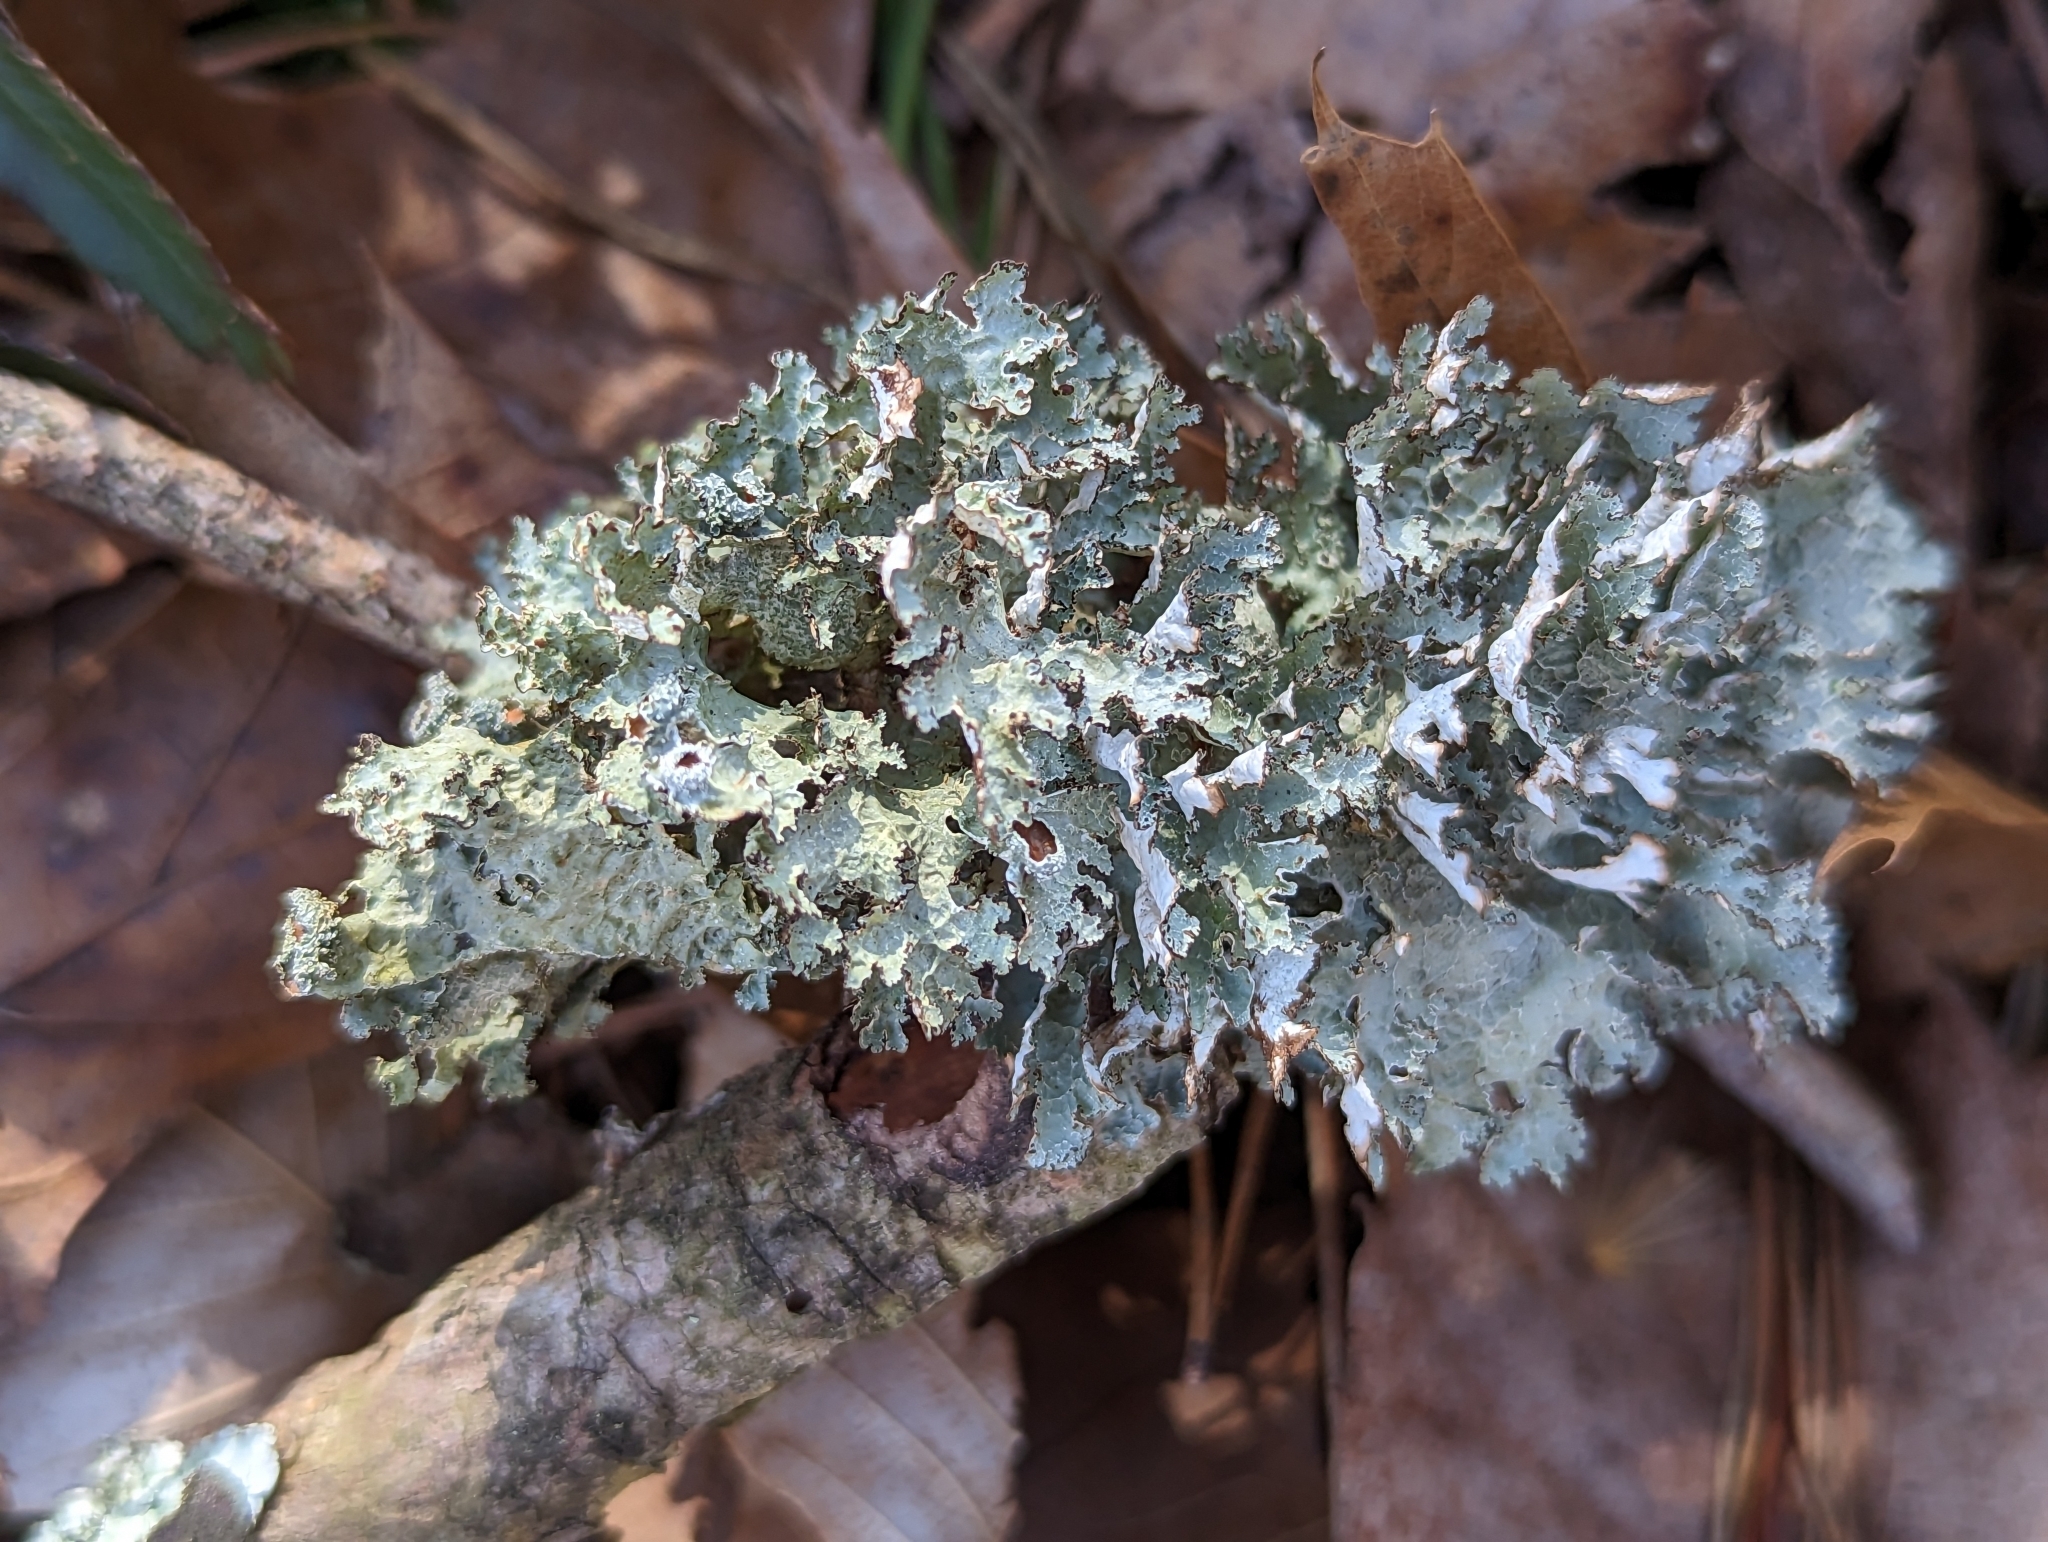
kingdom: Fungi
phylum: Ascomycota
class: Lecanoromycetes
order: Lecanorales
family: Parmeliaceae
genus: Platismatia
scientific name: Platismatia tuckermanii
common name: Crumpled rag lichen
